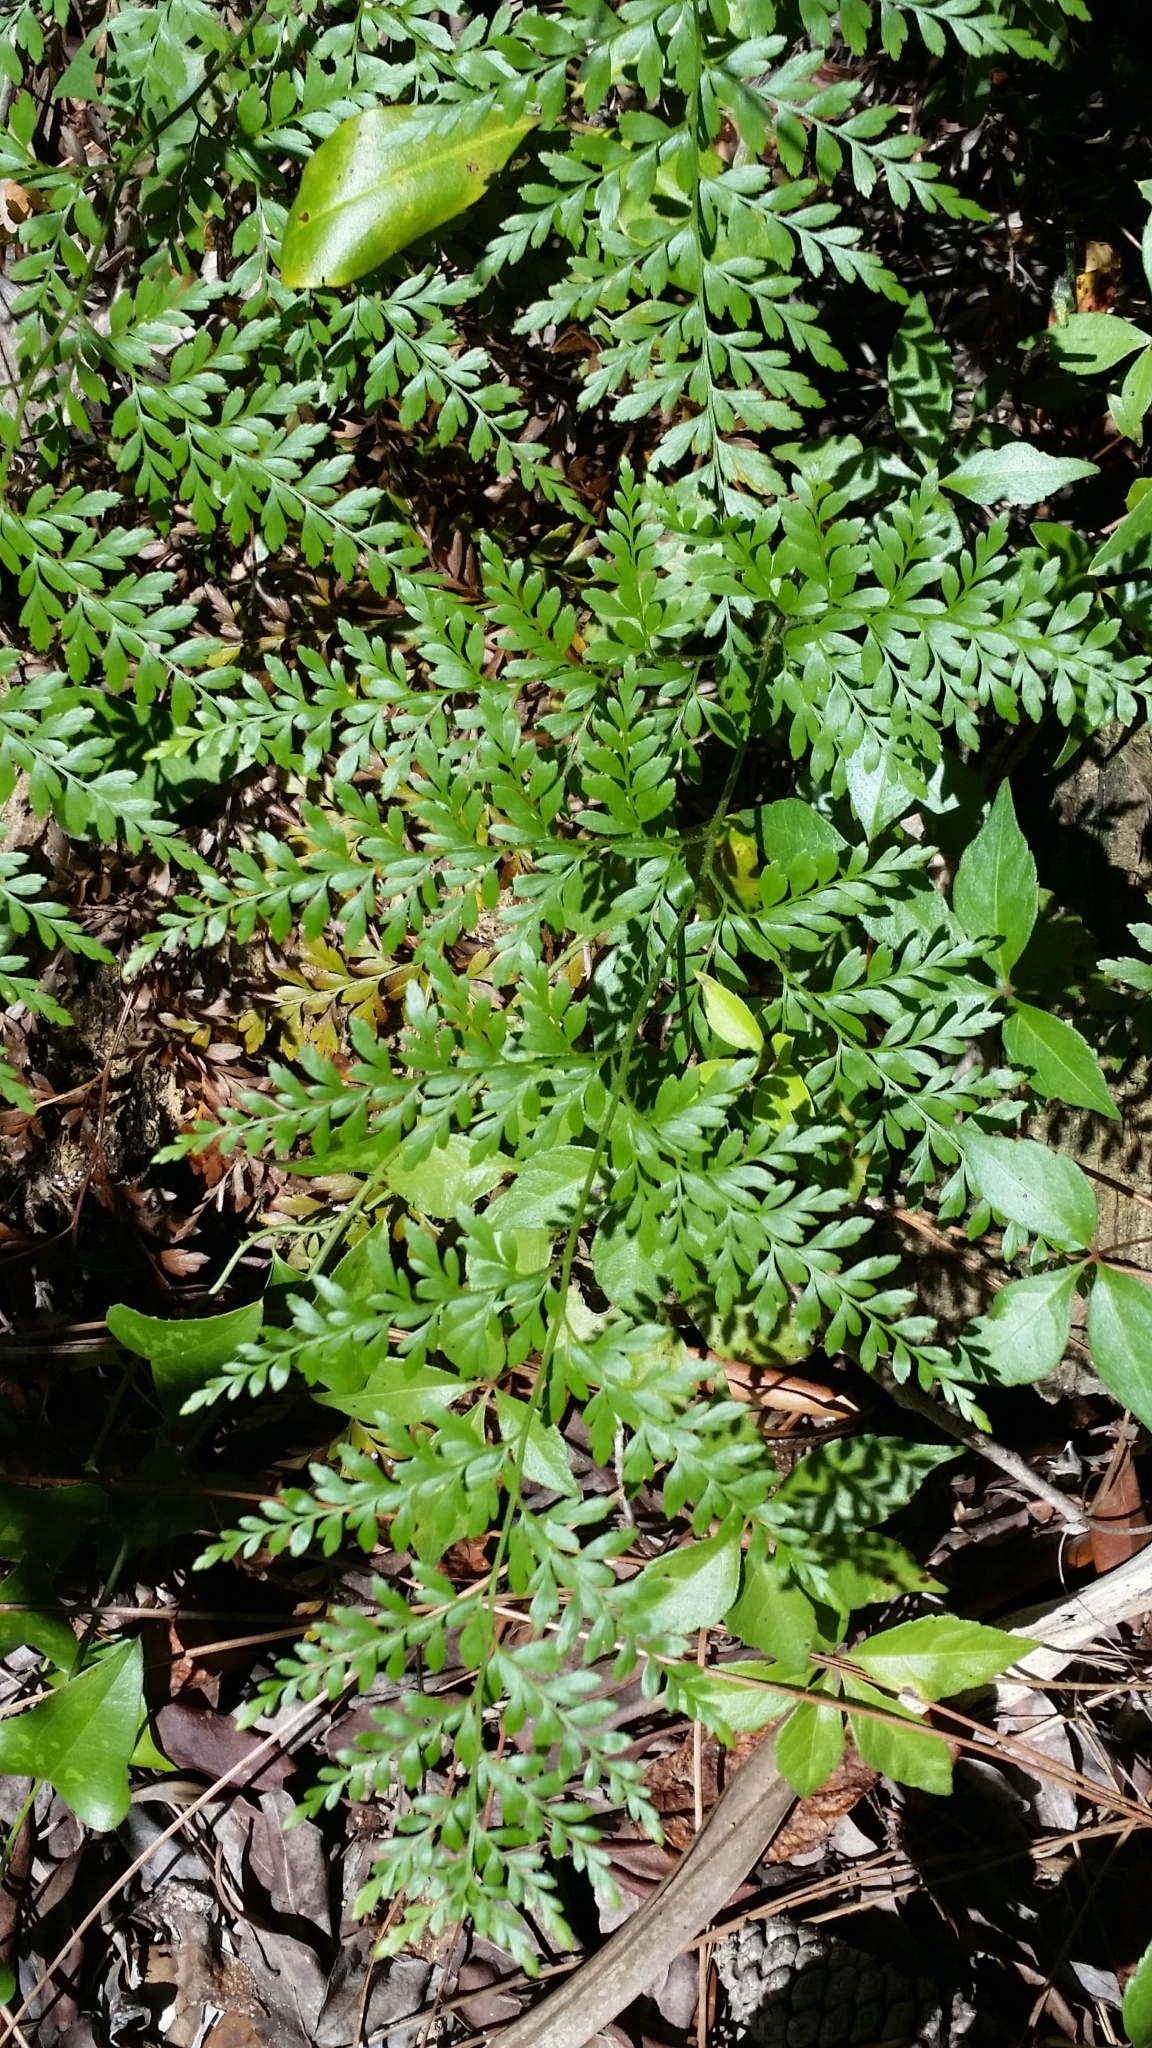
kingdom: Plantae
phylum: Tracheophyta
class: Polypodiopsida
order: Schizaeales
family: Anemiaceae
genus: Anemia
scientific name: Anemia adiantifolia
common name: Pine fern
